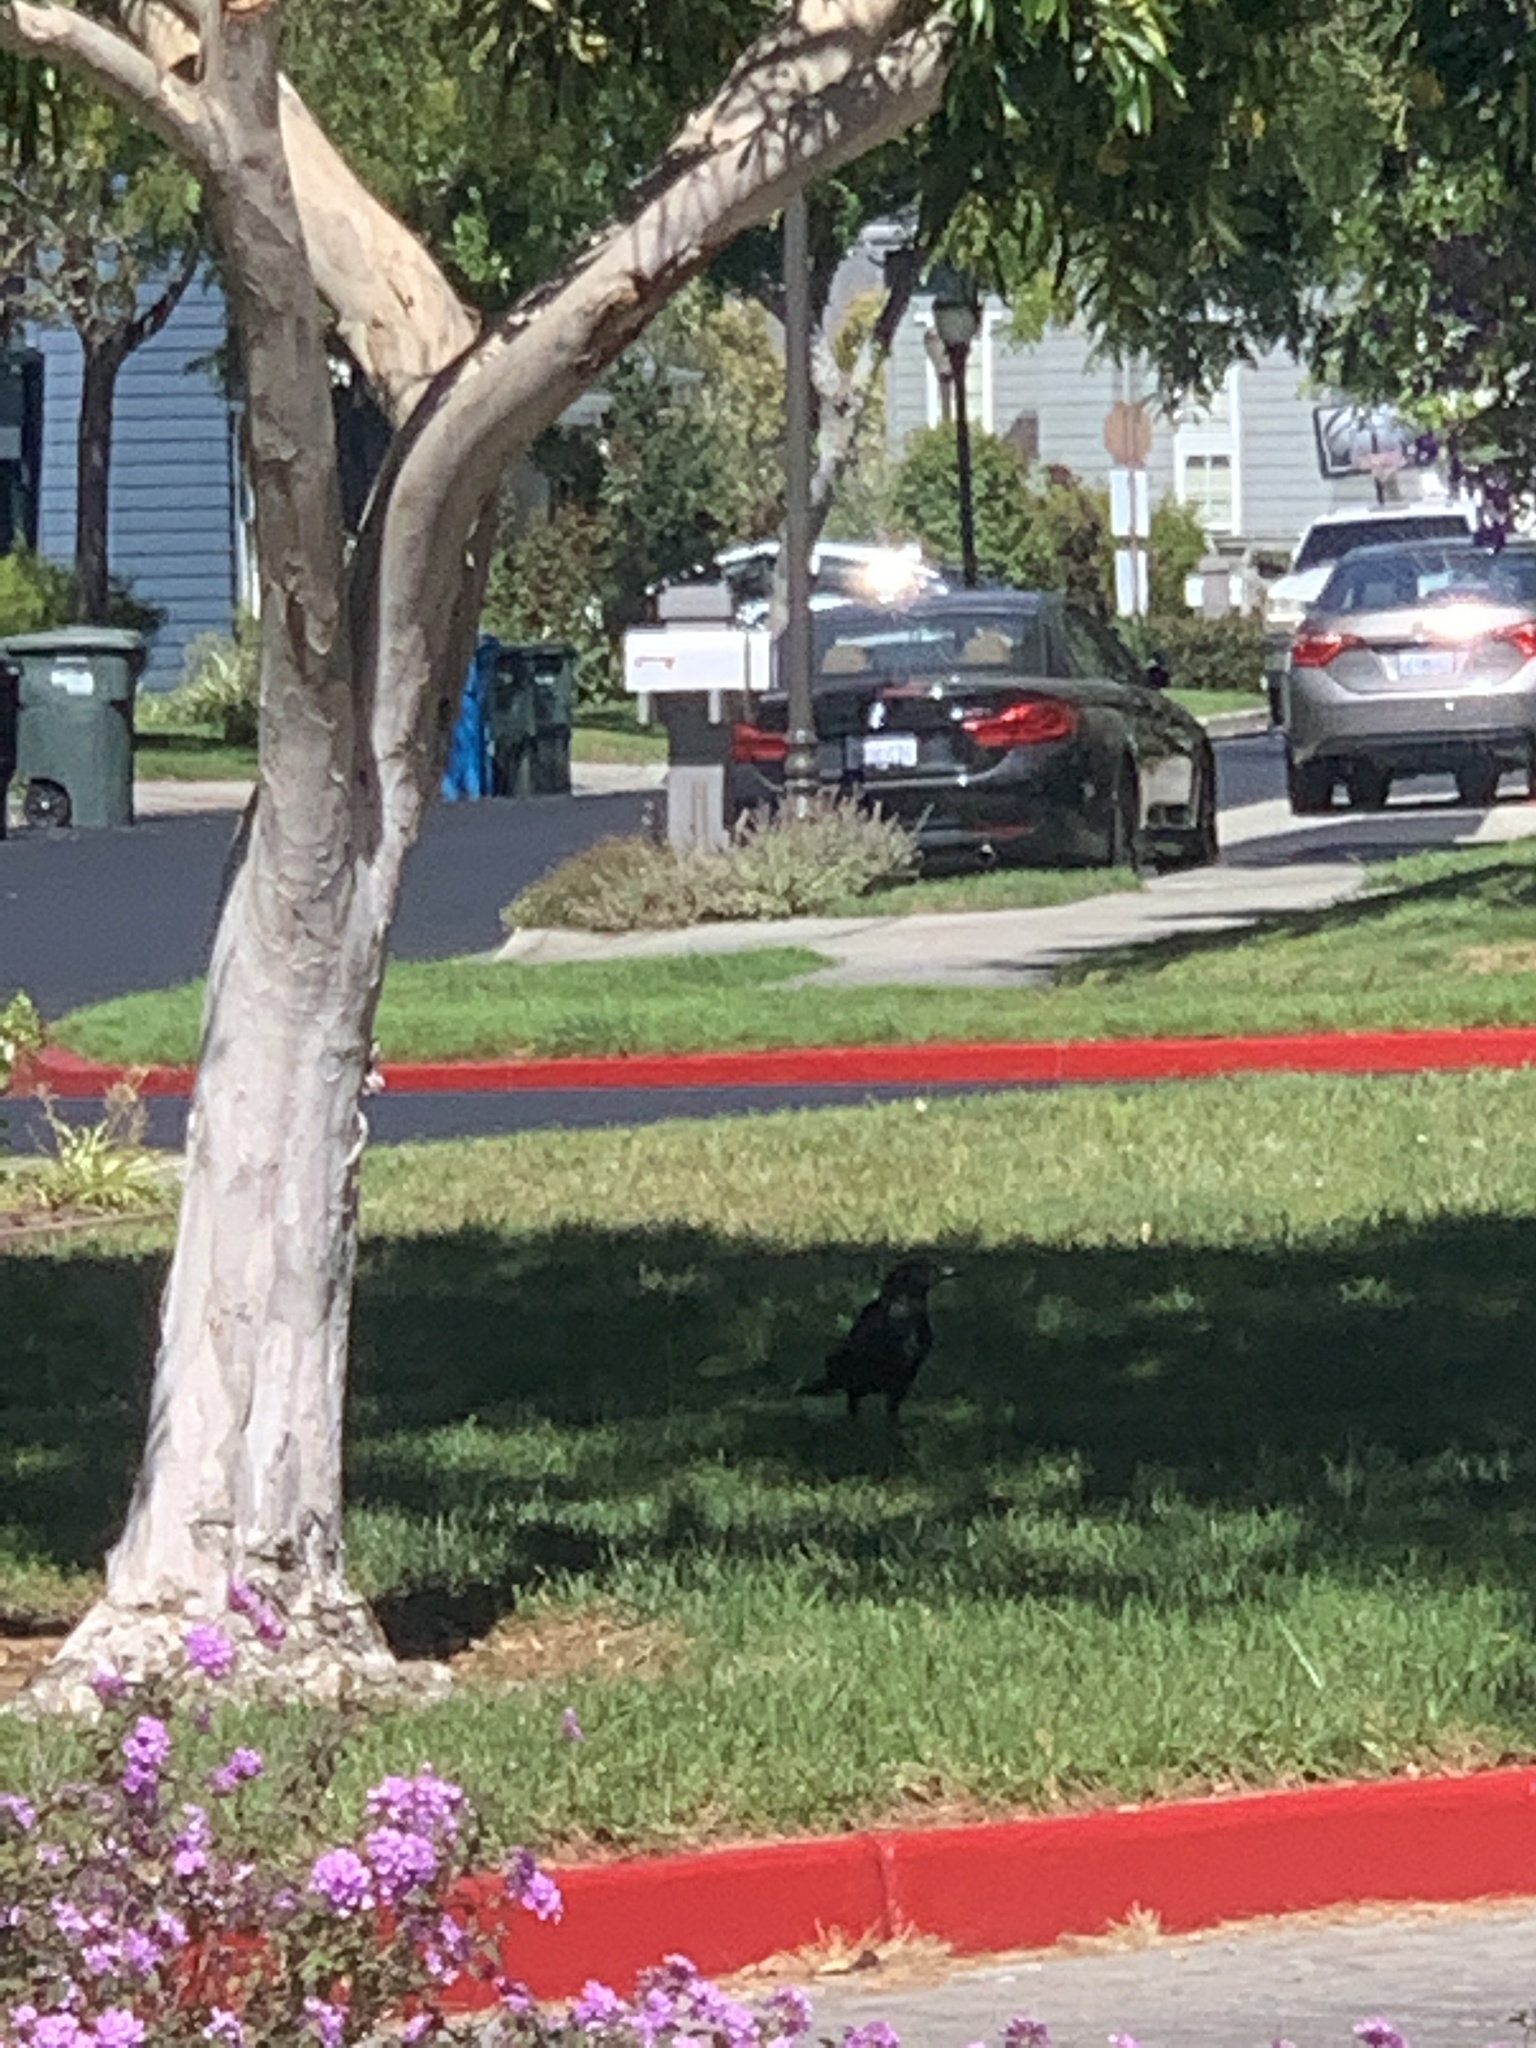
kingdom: Animalia
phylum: Chordata
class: Aves
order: Passeriformes
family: Corvidae
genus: Corvus
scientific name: Corvus brachyrhynchos
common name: American crow
